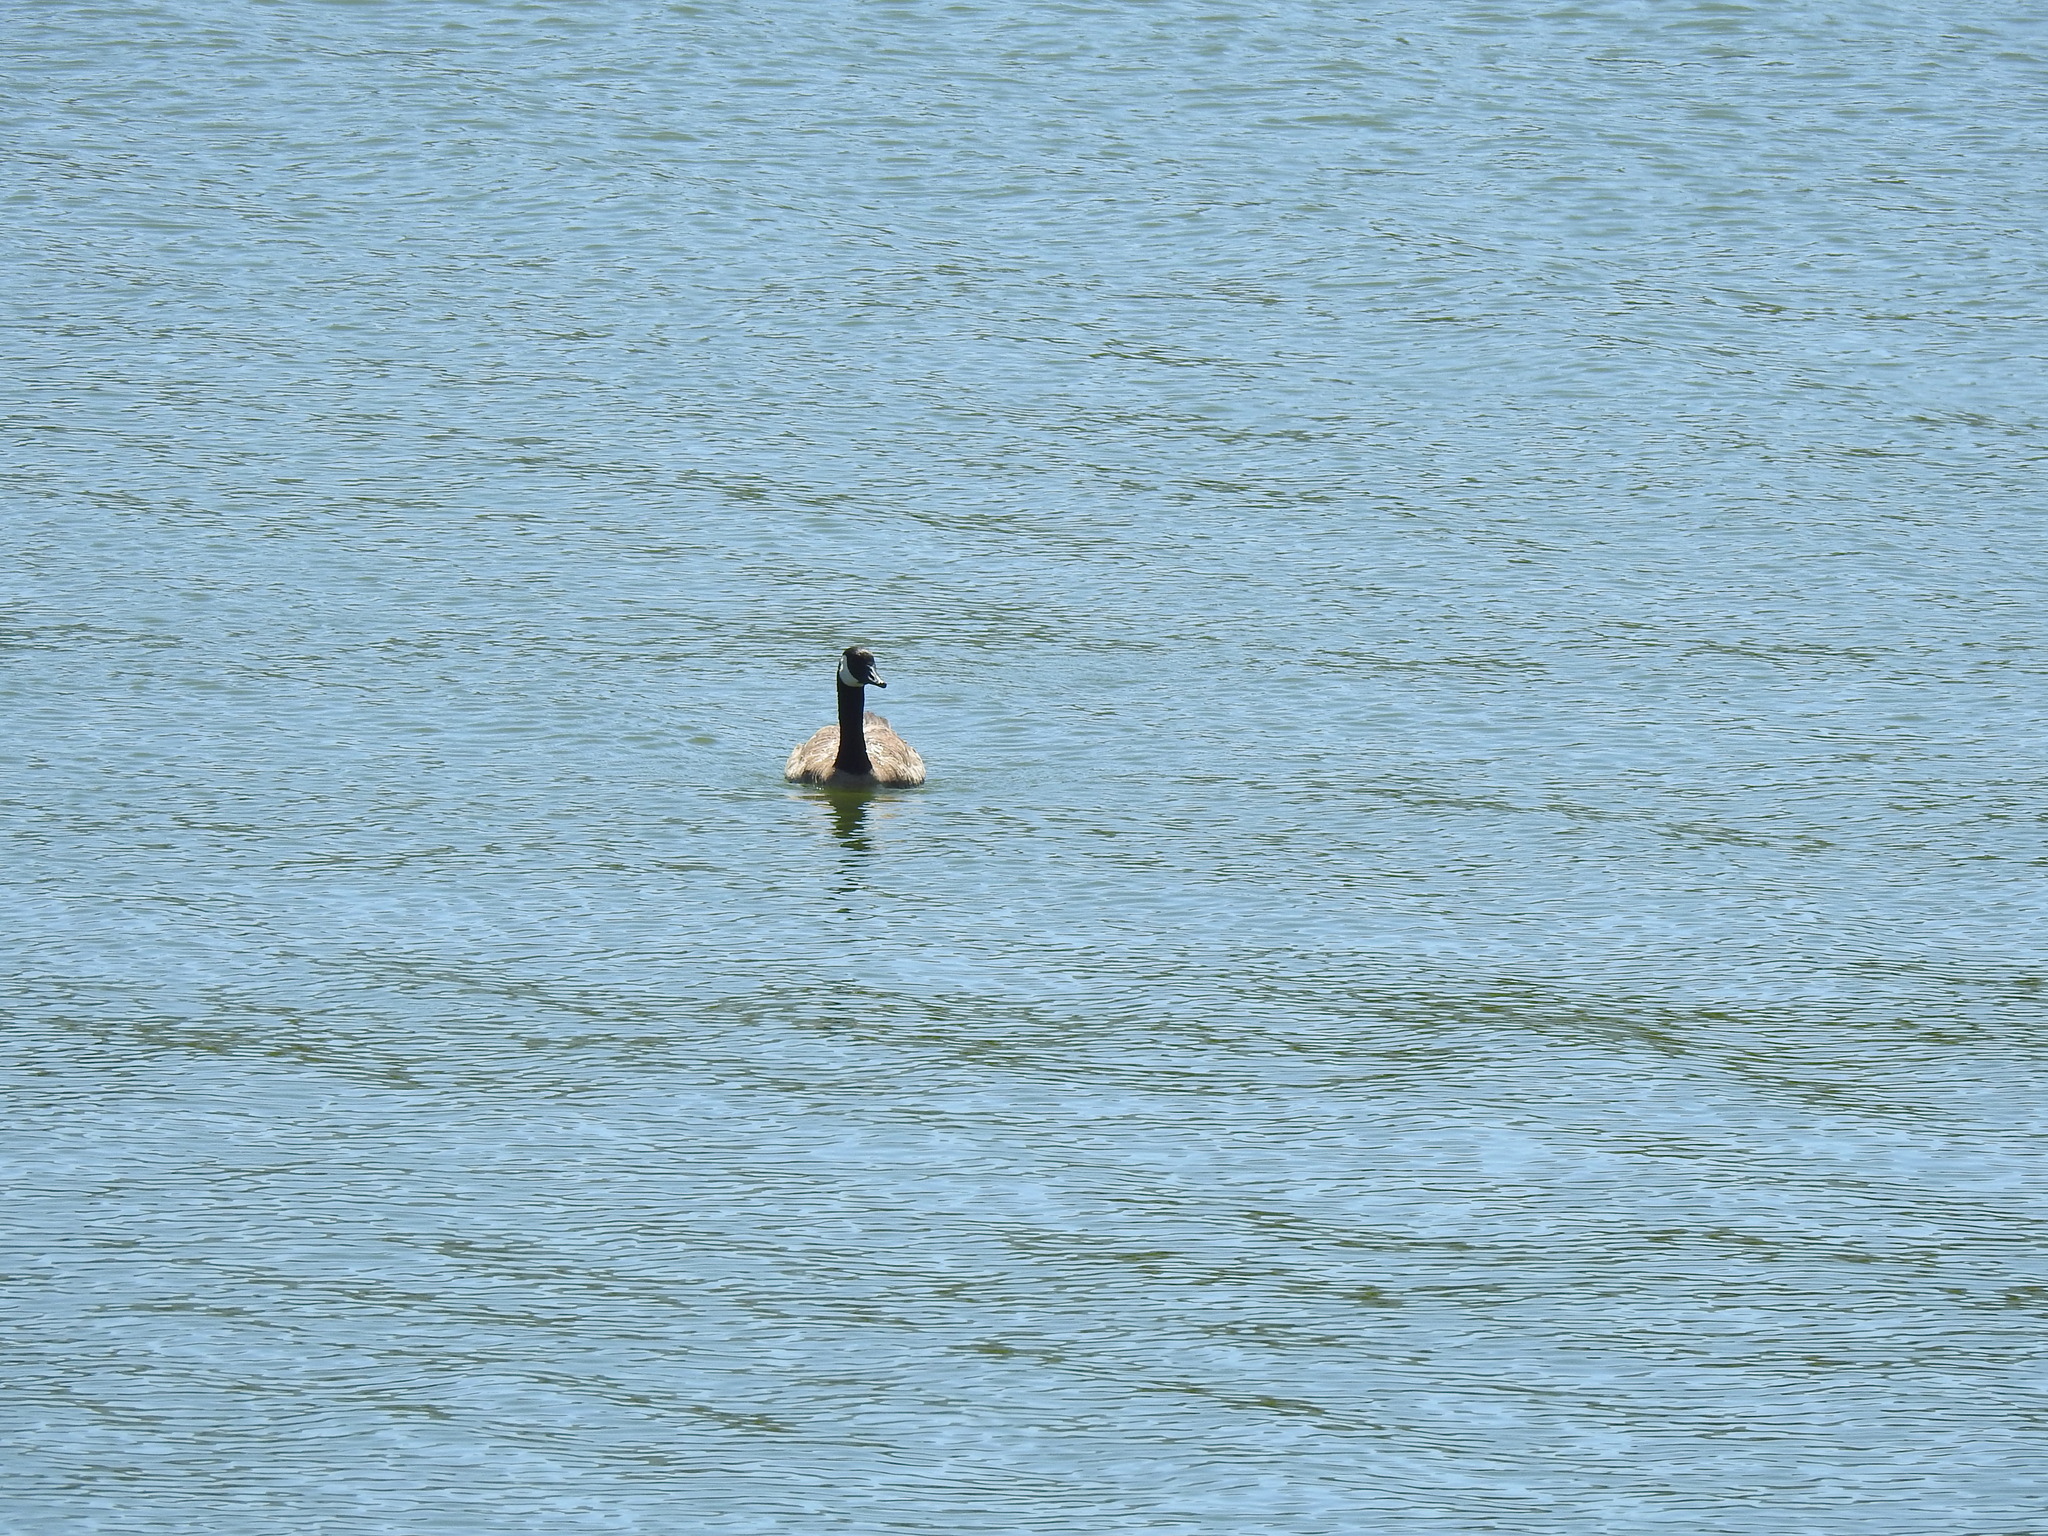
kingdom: Animalia
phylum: Chordata
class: Aves
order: Anseriformes
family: Anatidae
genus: Branta
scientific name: Branta canadensis
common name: Canada goose
